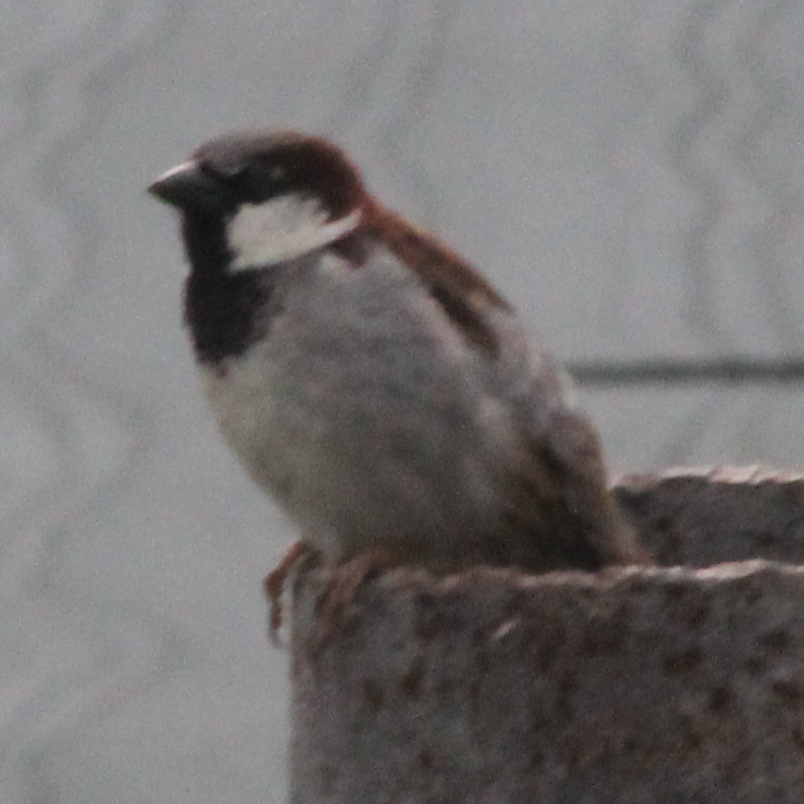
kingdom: Animalia
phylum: Chordata
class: Aves
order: Passeriformes
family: Passeridae
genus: Passer
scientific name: Passer domesticus
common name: House sparrow
